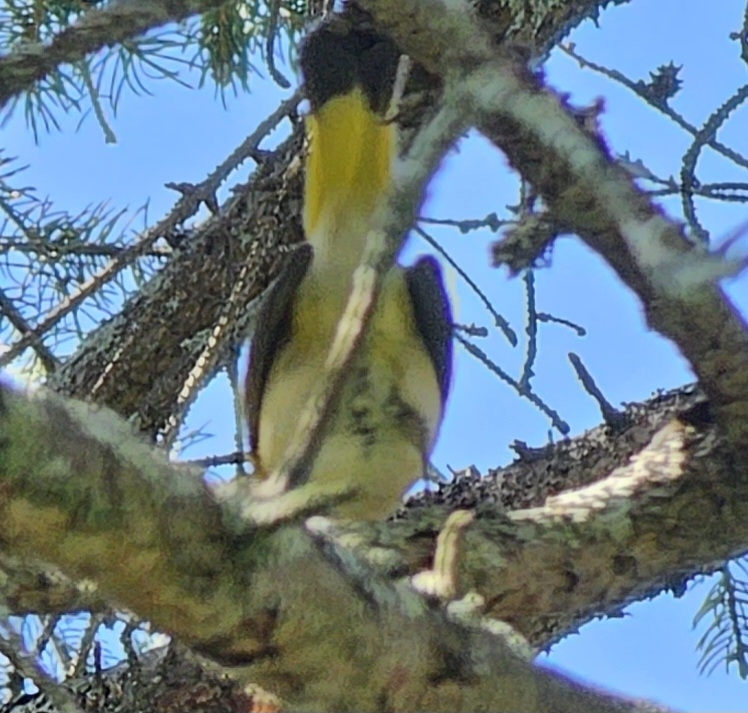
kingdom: Animalia
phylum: Chordata
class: Aves
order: Passeriformes
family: Parulidae
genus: Setophaga
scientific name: Setophaga ruticilla
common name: American redstart
